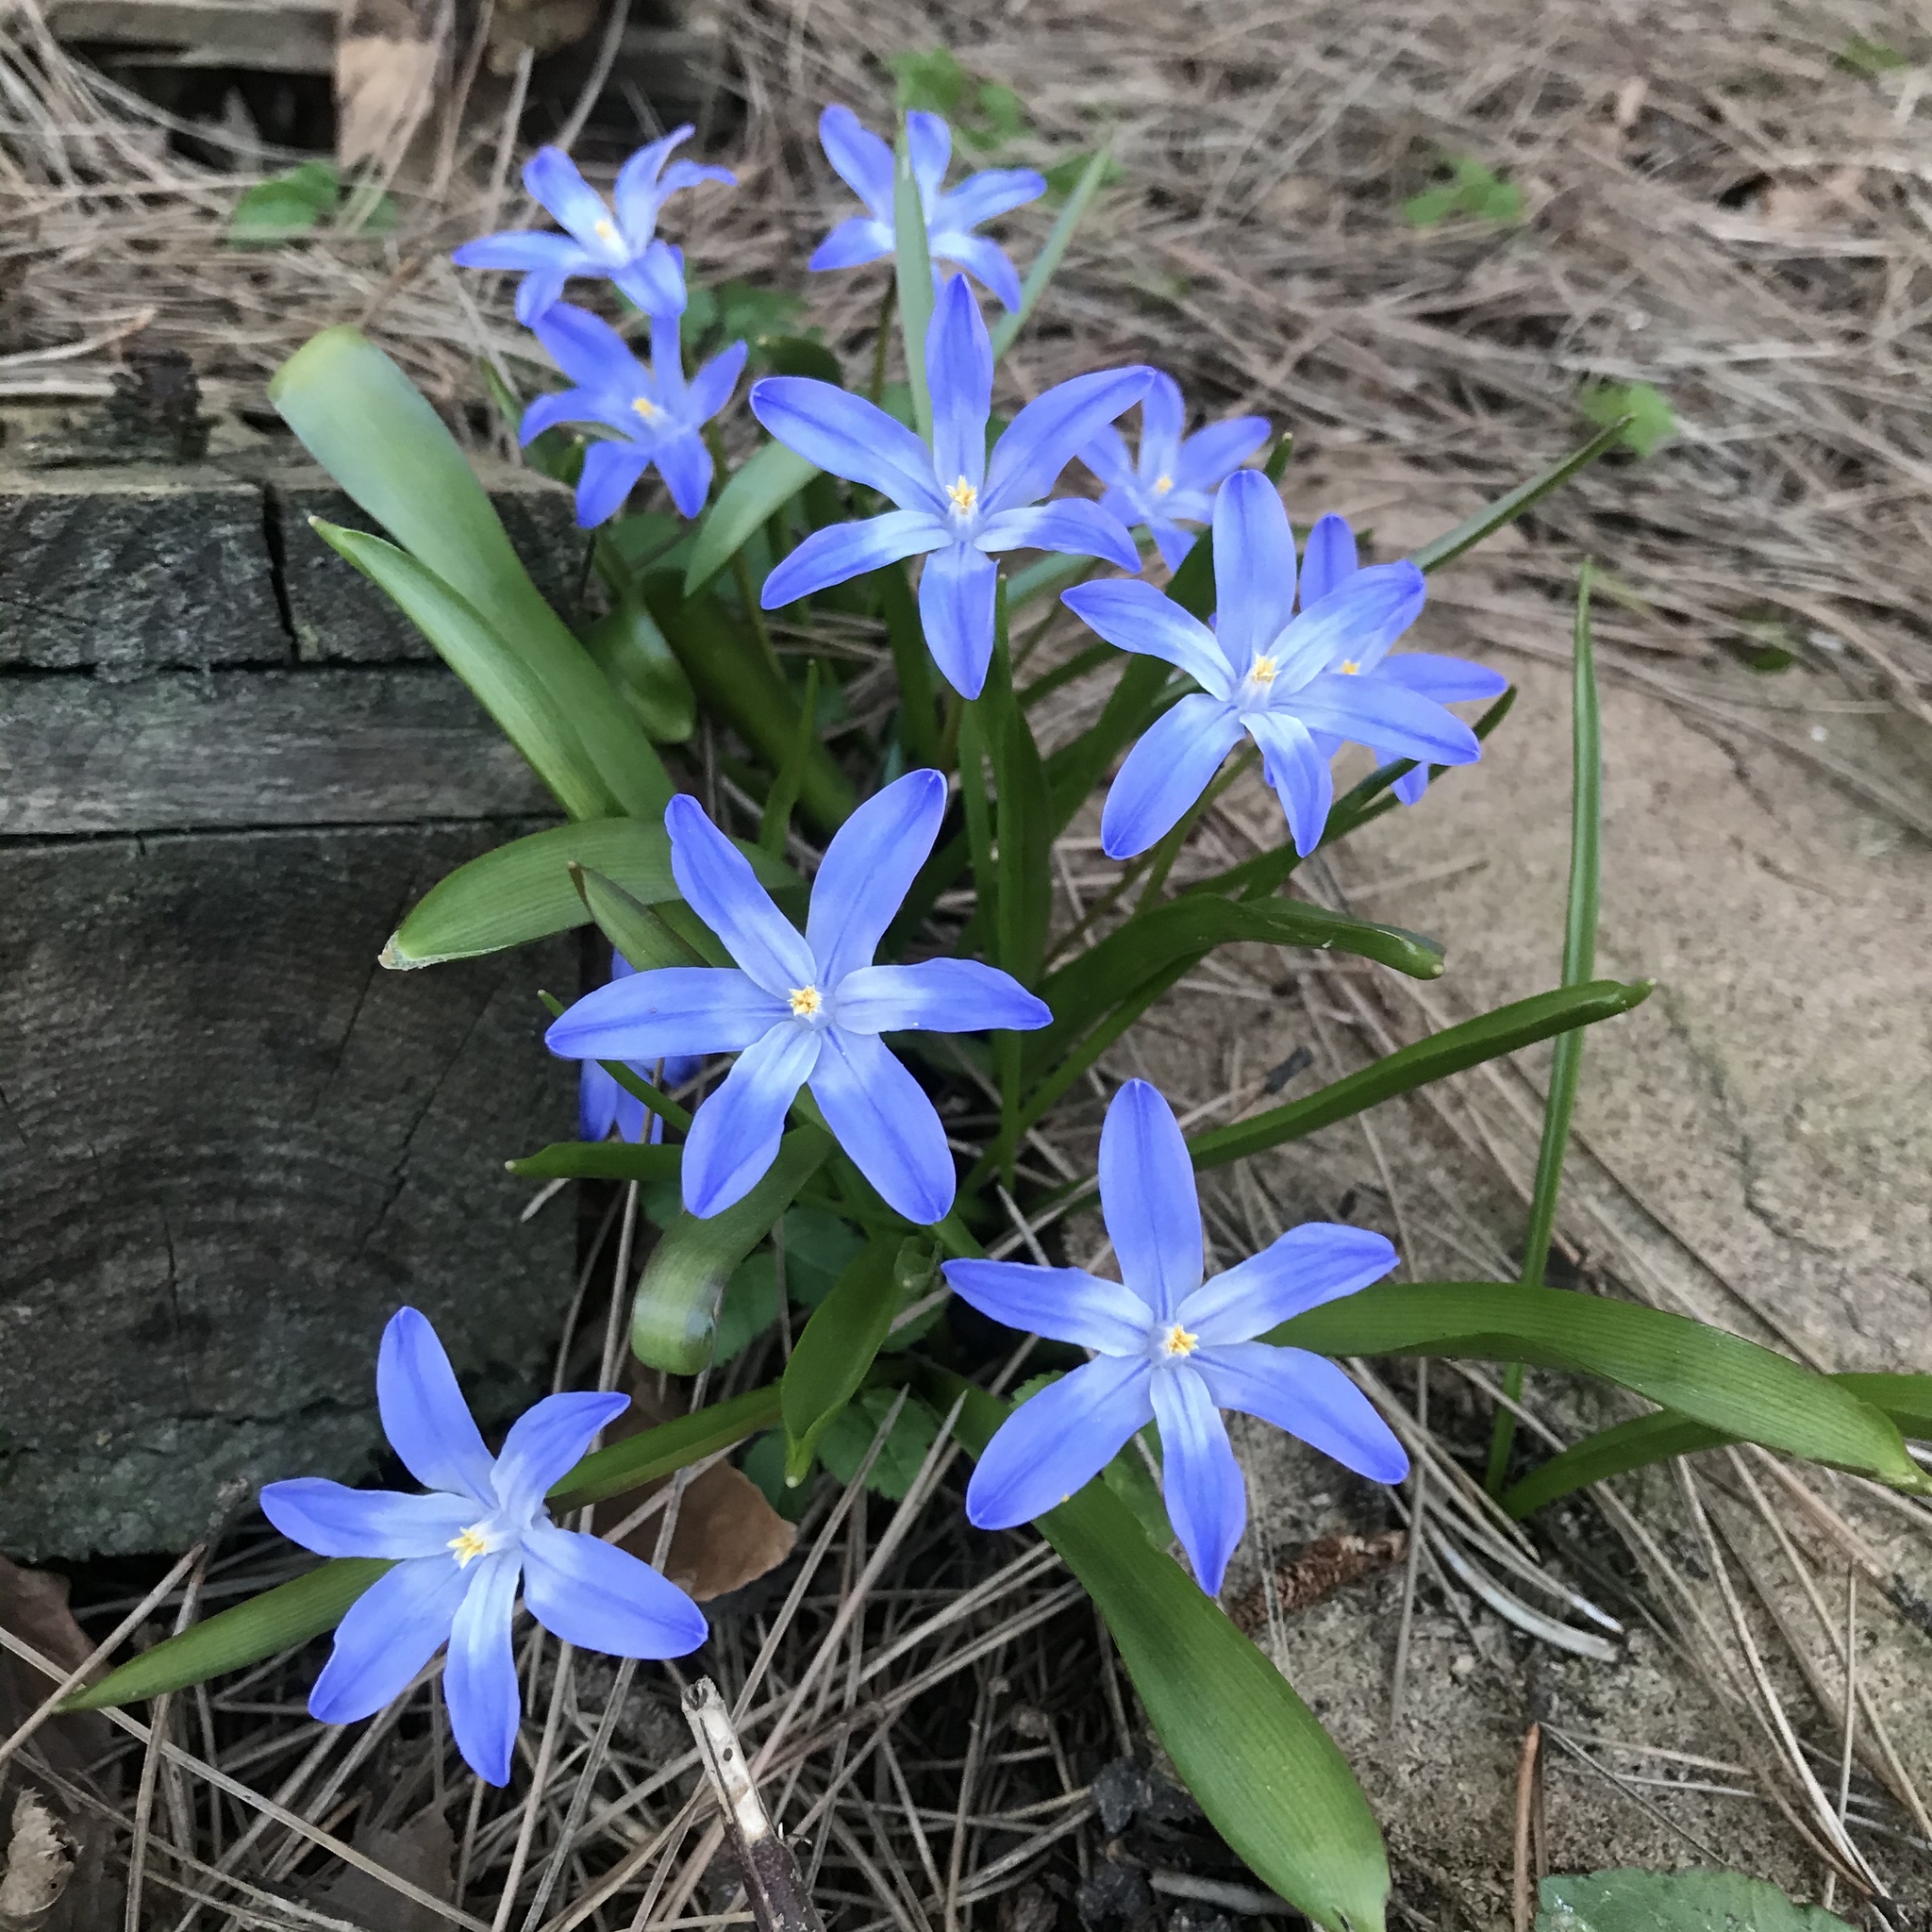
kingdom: Plantae
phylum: Tracheophyta
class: Liliopsida
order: Asparagales
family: Asparagaceae
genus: Scilla
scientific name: Scilla luciliae
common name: Boissier's glory-of-the-snow
